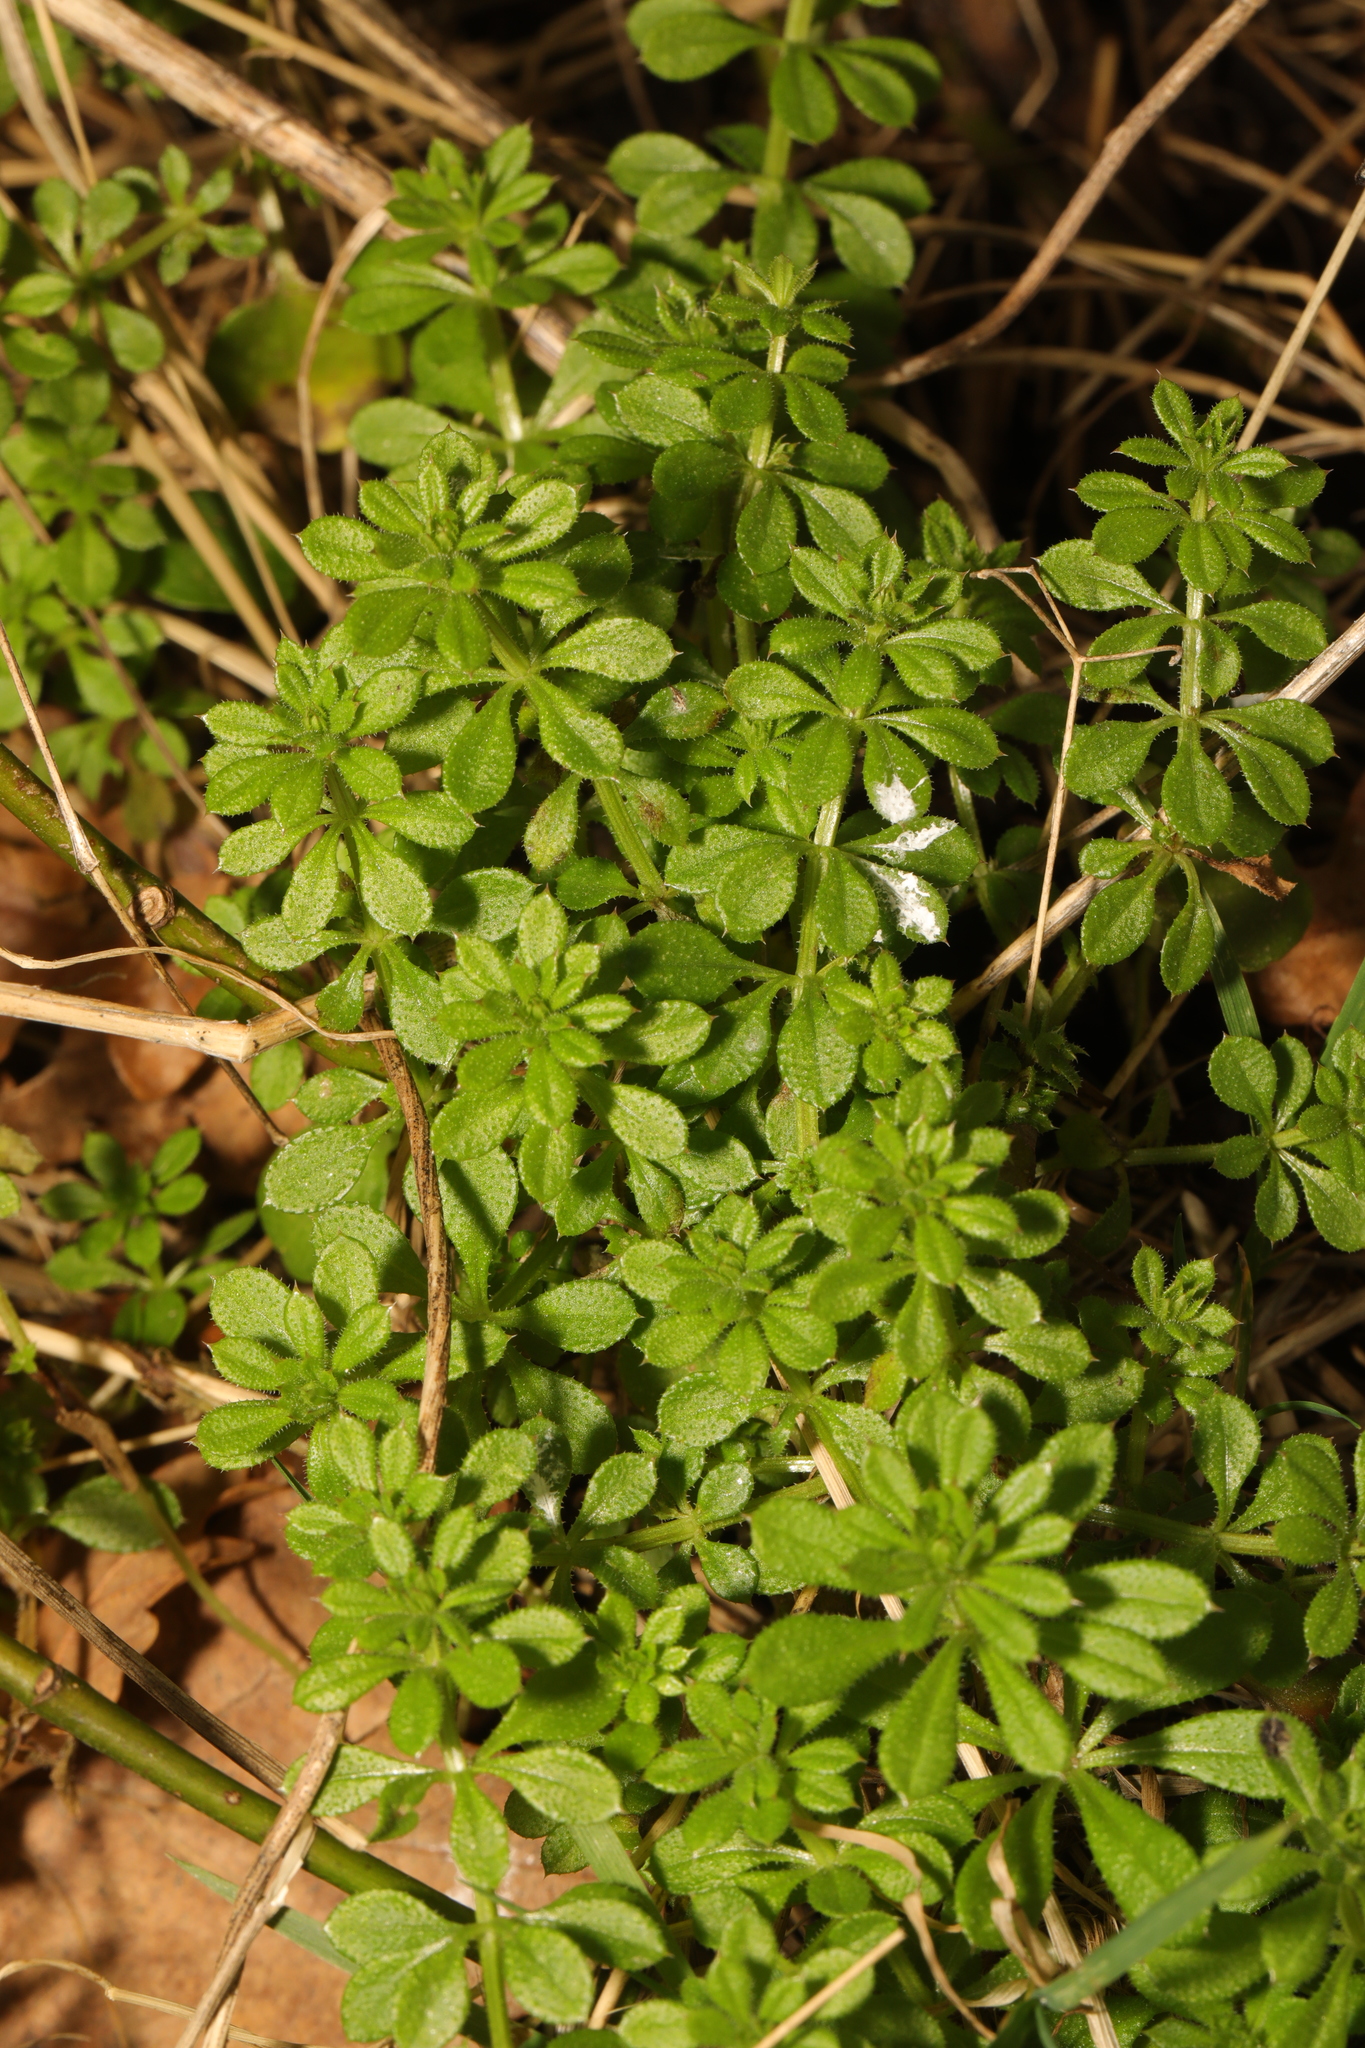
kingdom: Plantae
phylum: Tracheophyta
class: Magnoliopsida
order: Gentianales
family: Rubiaceae
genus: Galium
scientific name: Galium aparine
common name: Cleavers
